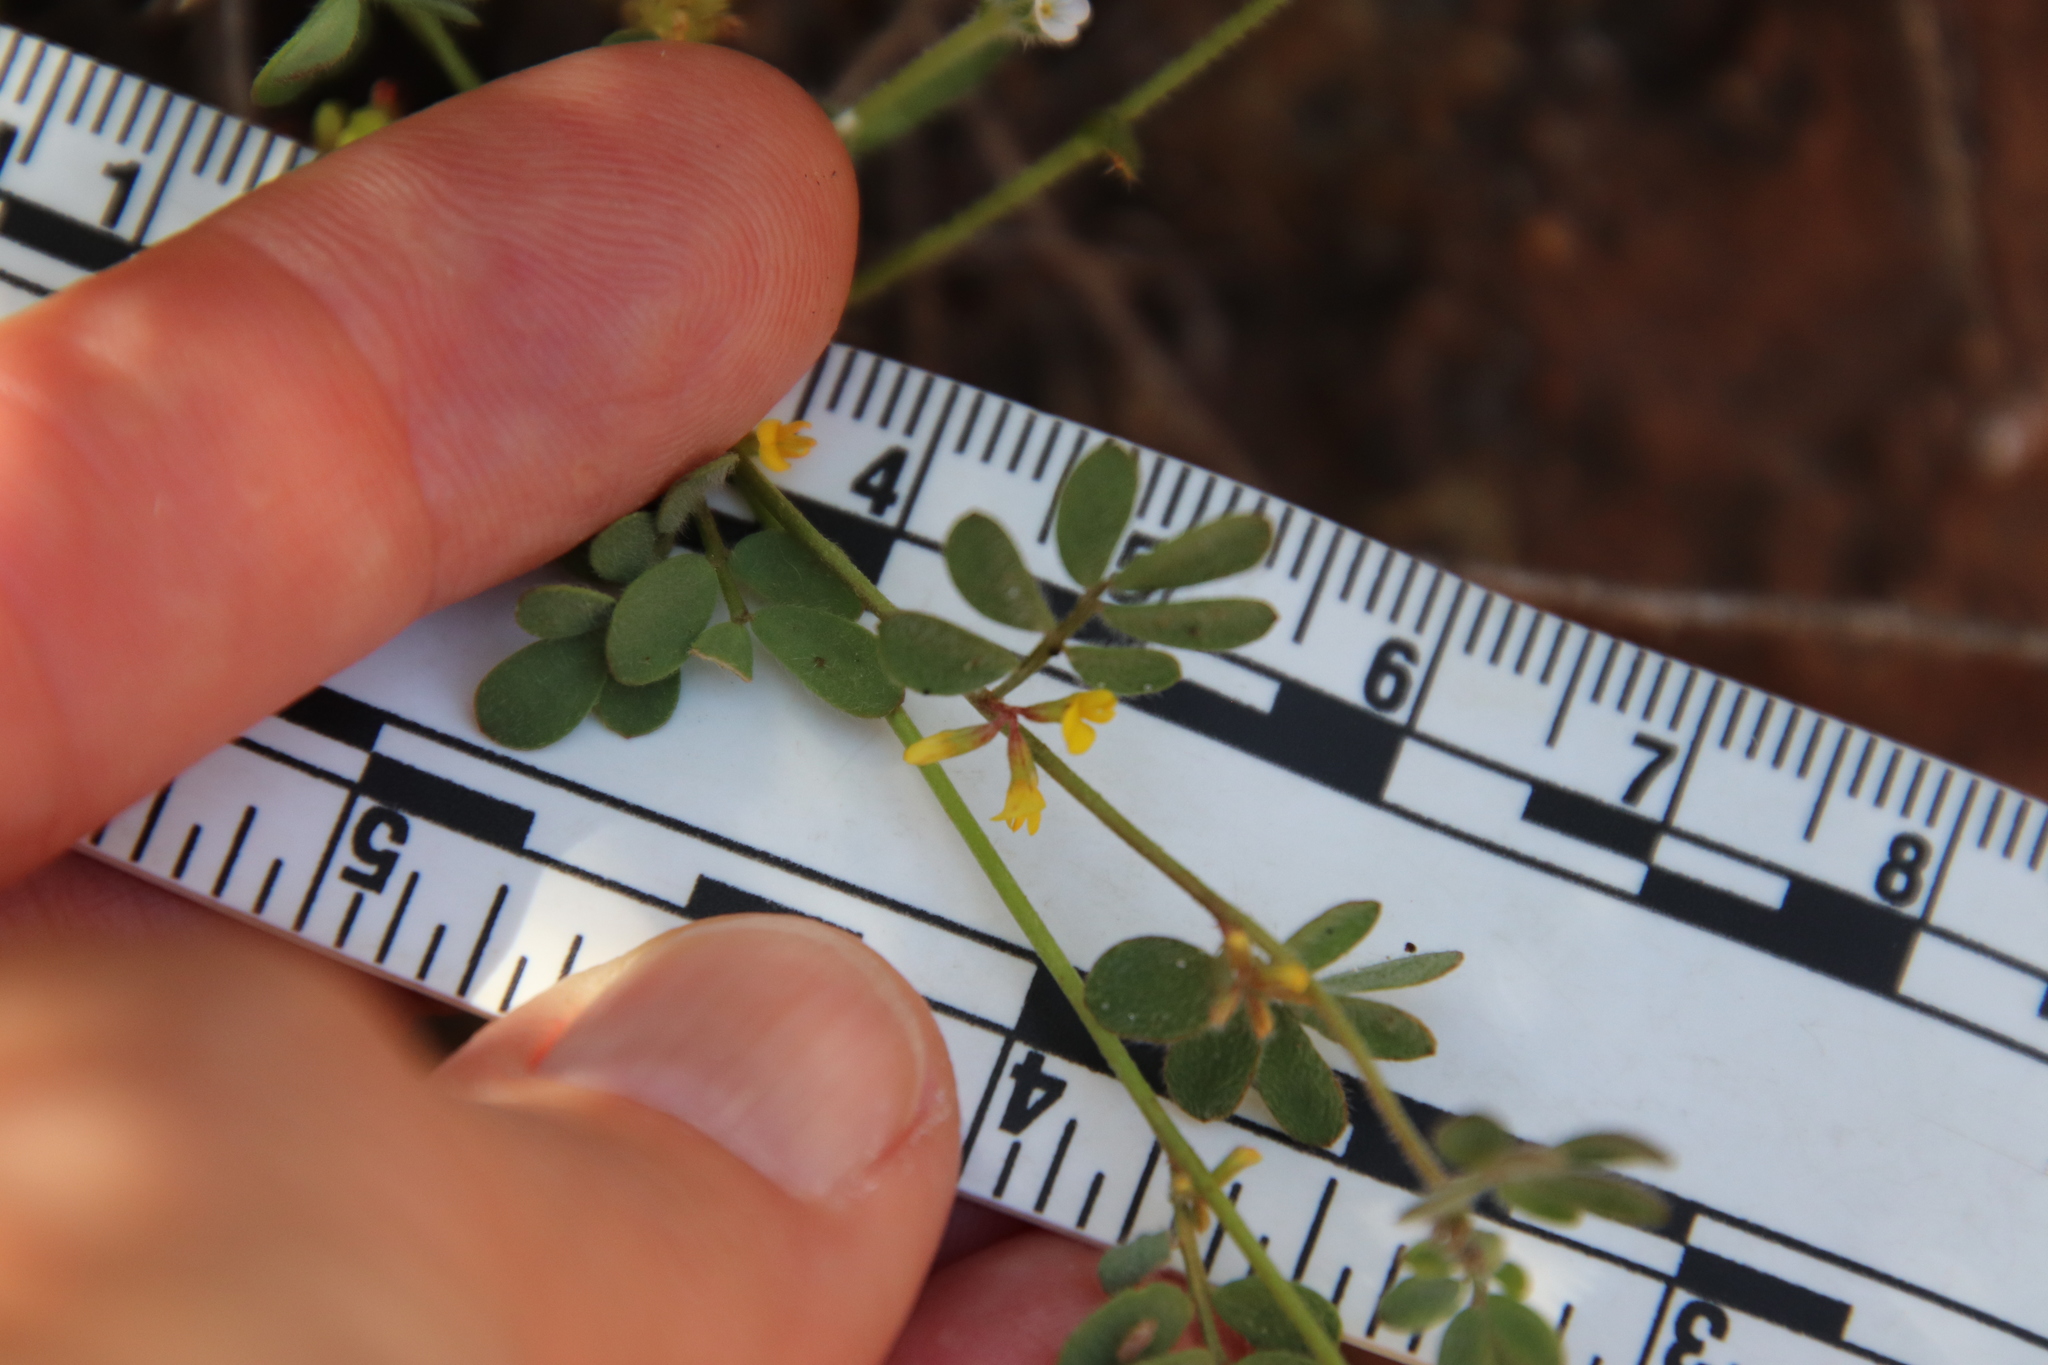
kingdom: Plantae
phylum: Tracheophyta
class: Magnoliopsida
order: Fabales
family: Fabaceae
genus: Acmispon
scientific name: Acmispon micranthus
